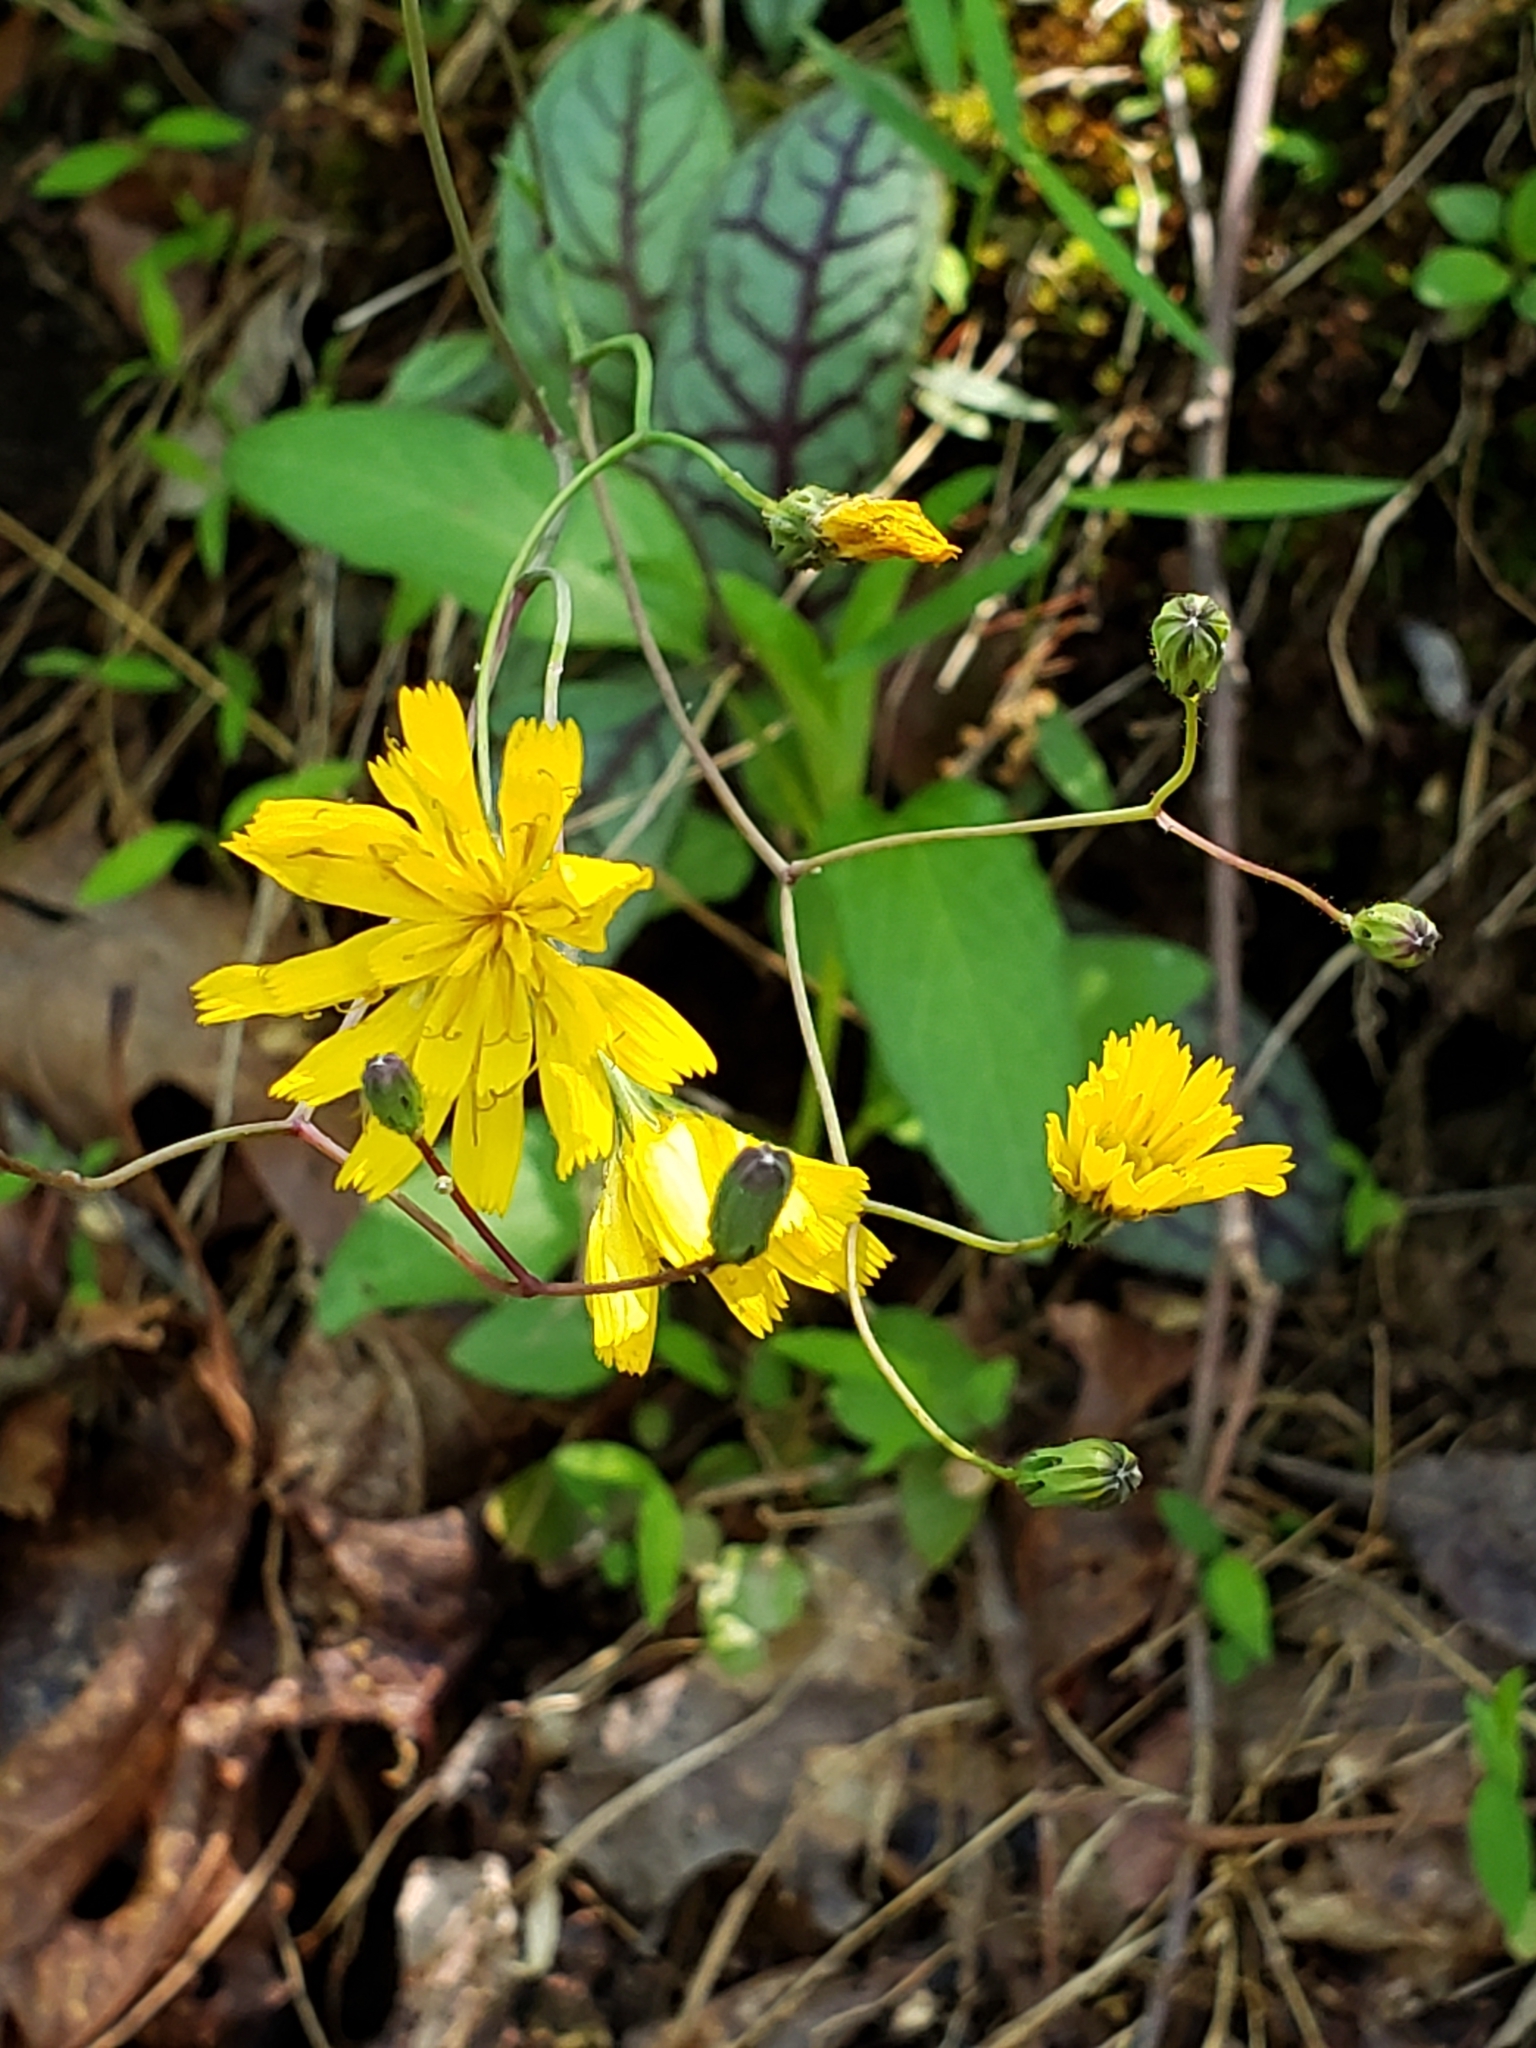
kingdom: Plantae
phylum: Tracheophyta
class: Magnoliopsida
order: Asterales
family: Asteraceae
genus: Hieracium
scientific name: Hieracium venosum
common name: Rattlesnake hawkweed
